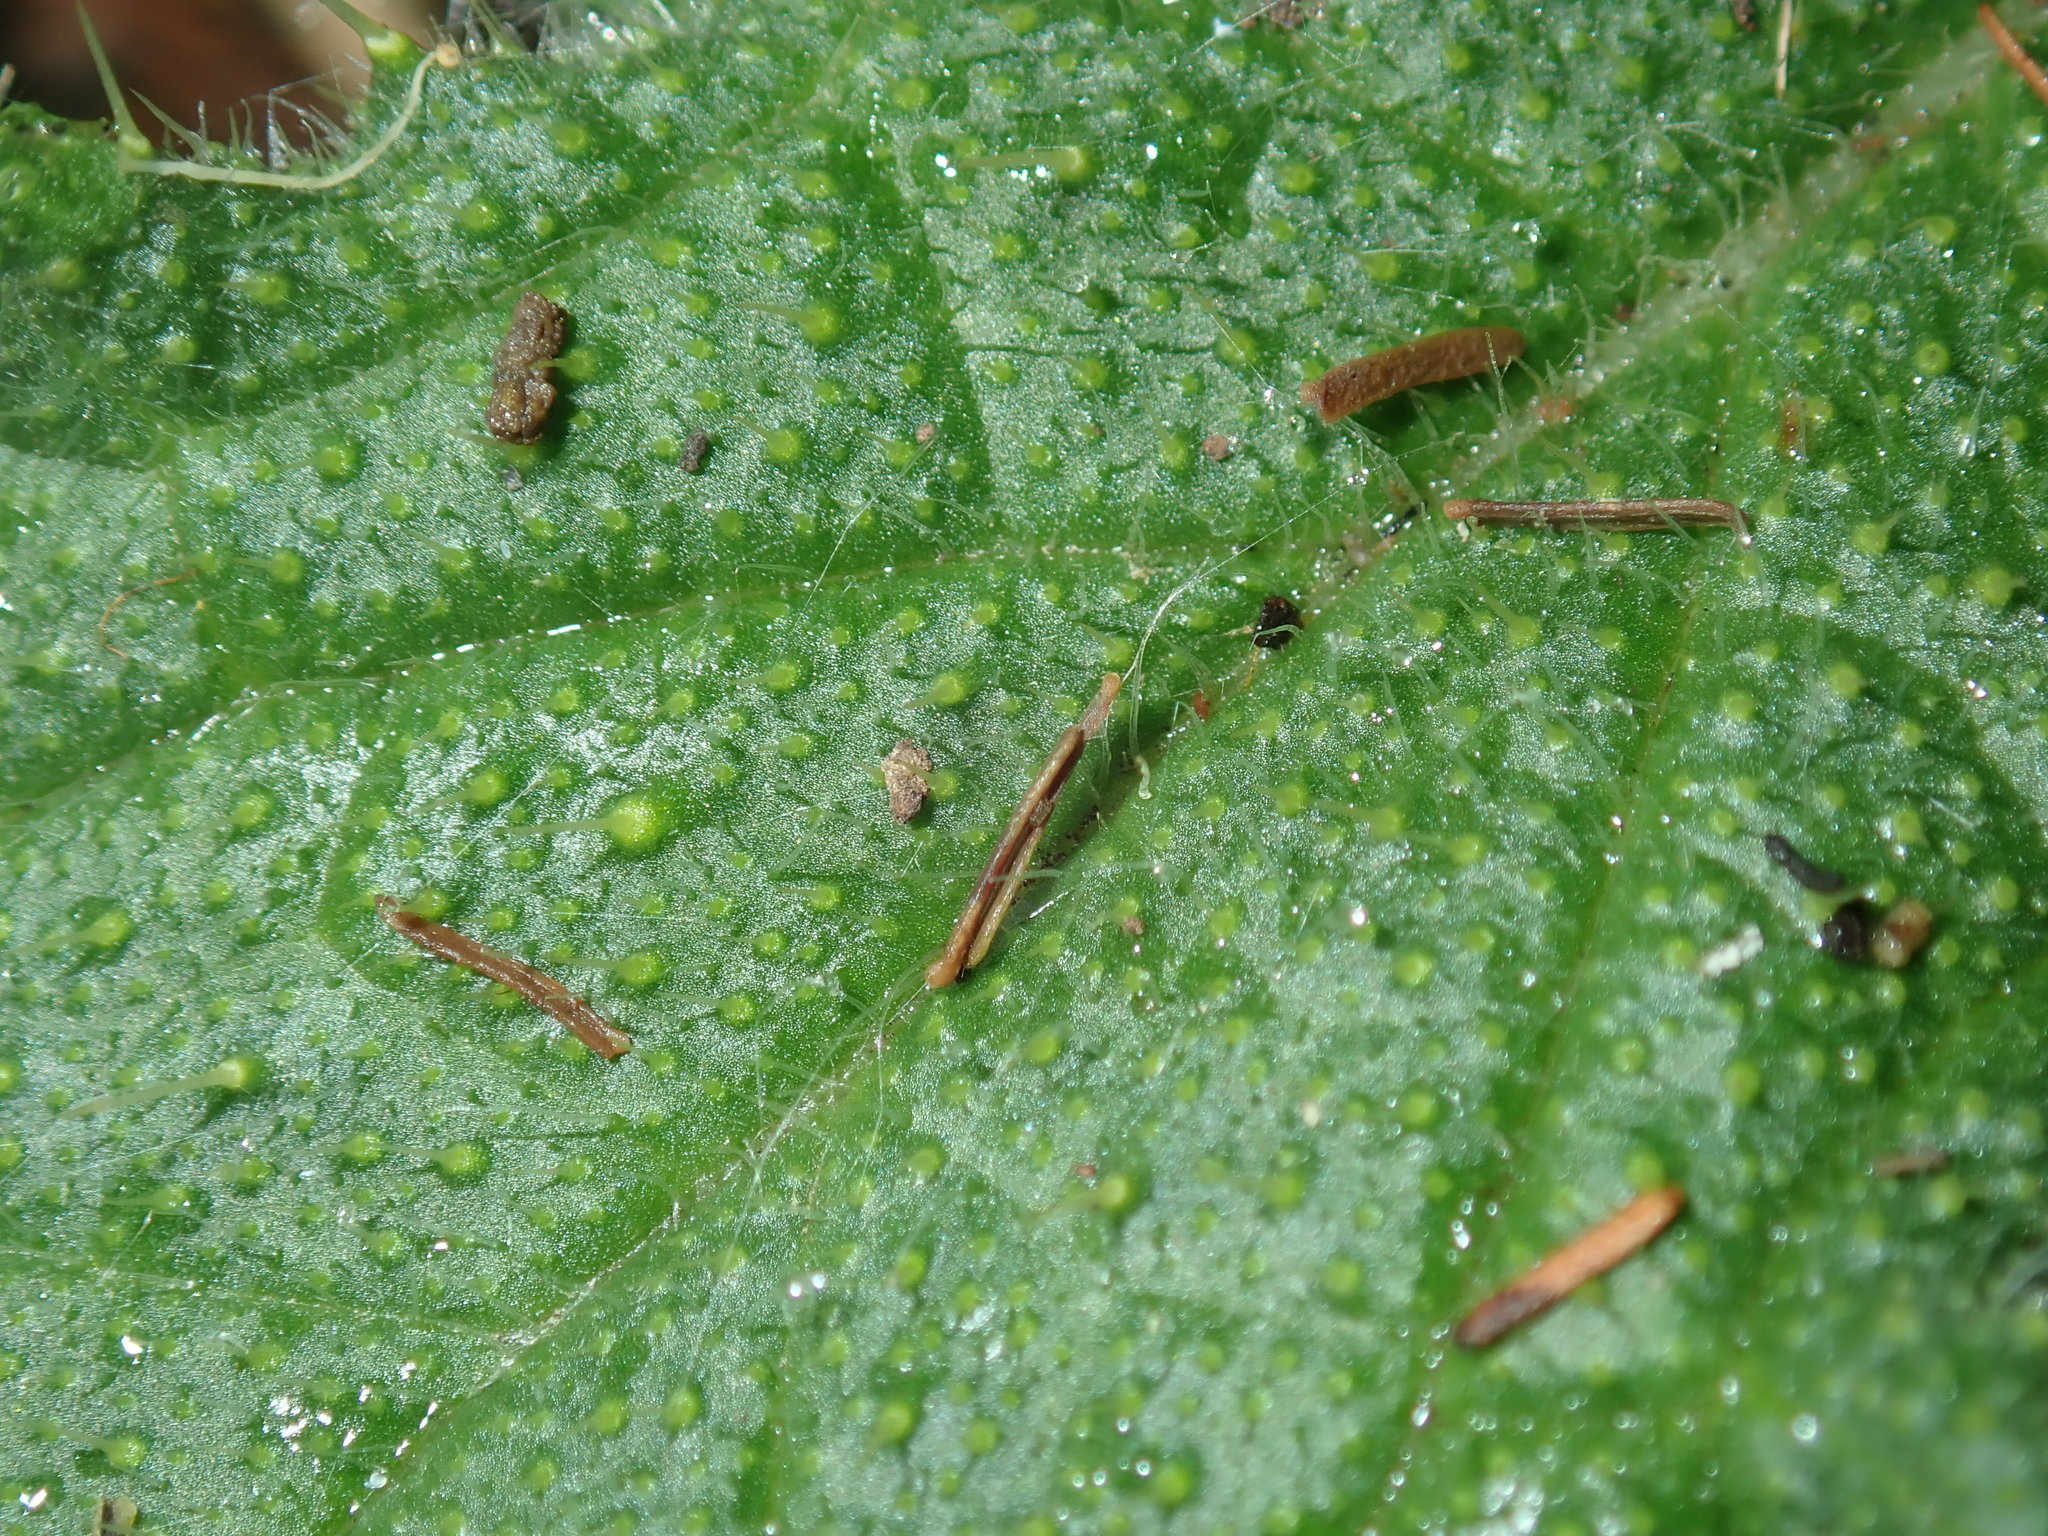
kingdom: Plantae
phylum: Tracheophyta
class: Magnoliopsida
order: Asterales
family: Asteraceae
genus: Cirsium
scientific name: Cirsium vulgare
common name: Bull thistle
